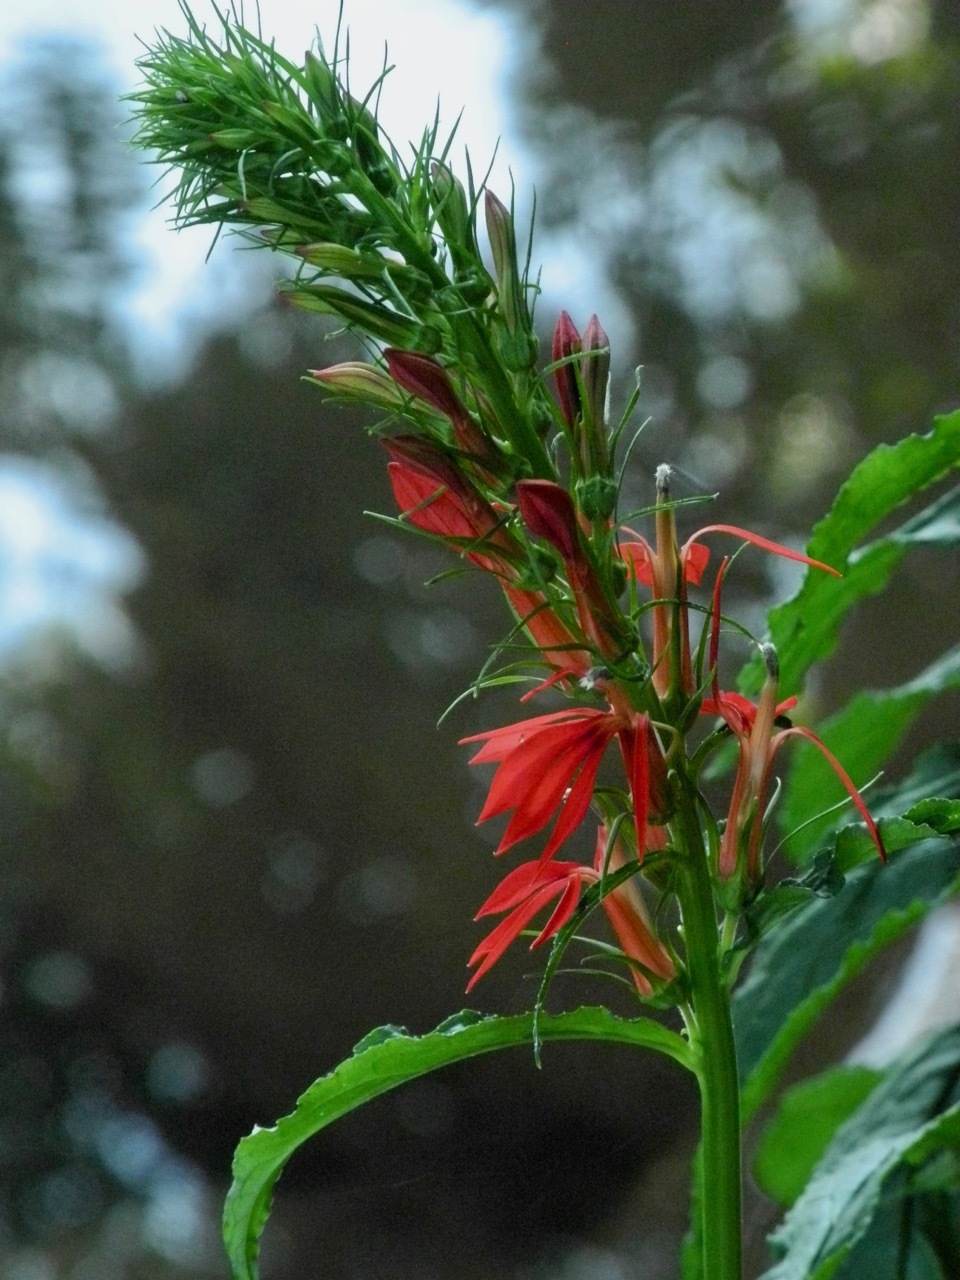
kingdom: Plantae
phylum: Tracheophyta
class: Magnoliopsida
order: Asterales
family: Campanulaceae
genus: Lobelia
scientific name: Lobelia cardinalis
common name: Cardinal flower
